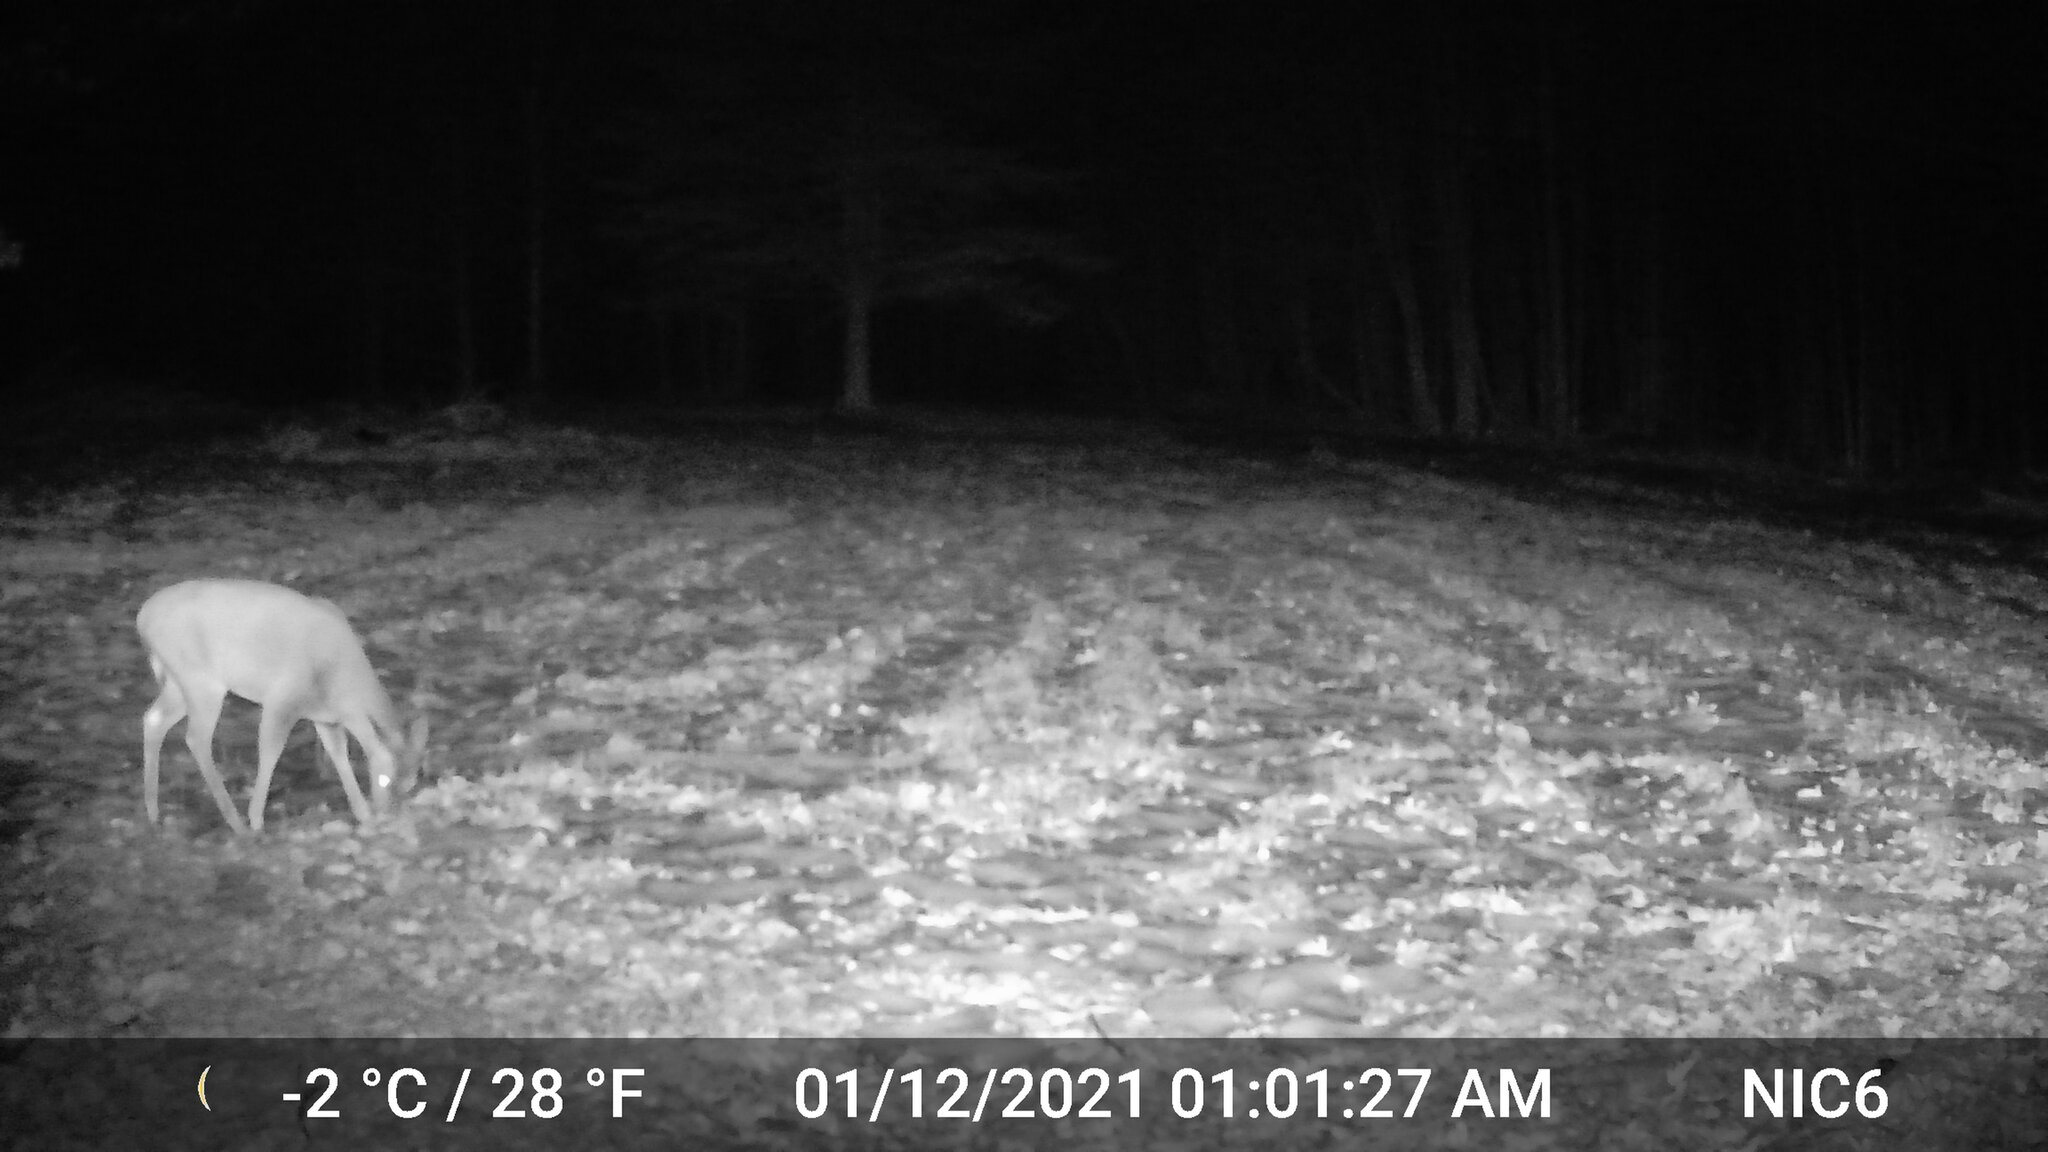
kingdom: Animalia
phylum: Chordata
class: Mammalia
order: Artiodactyla
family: Cervidae
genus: Odocoileus
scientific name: Odocoileus virginianus
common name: White-tailed deer
